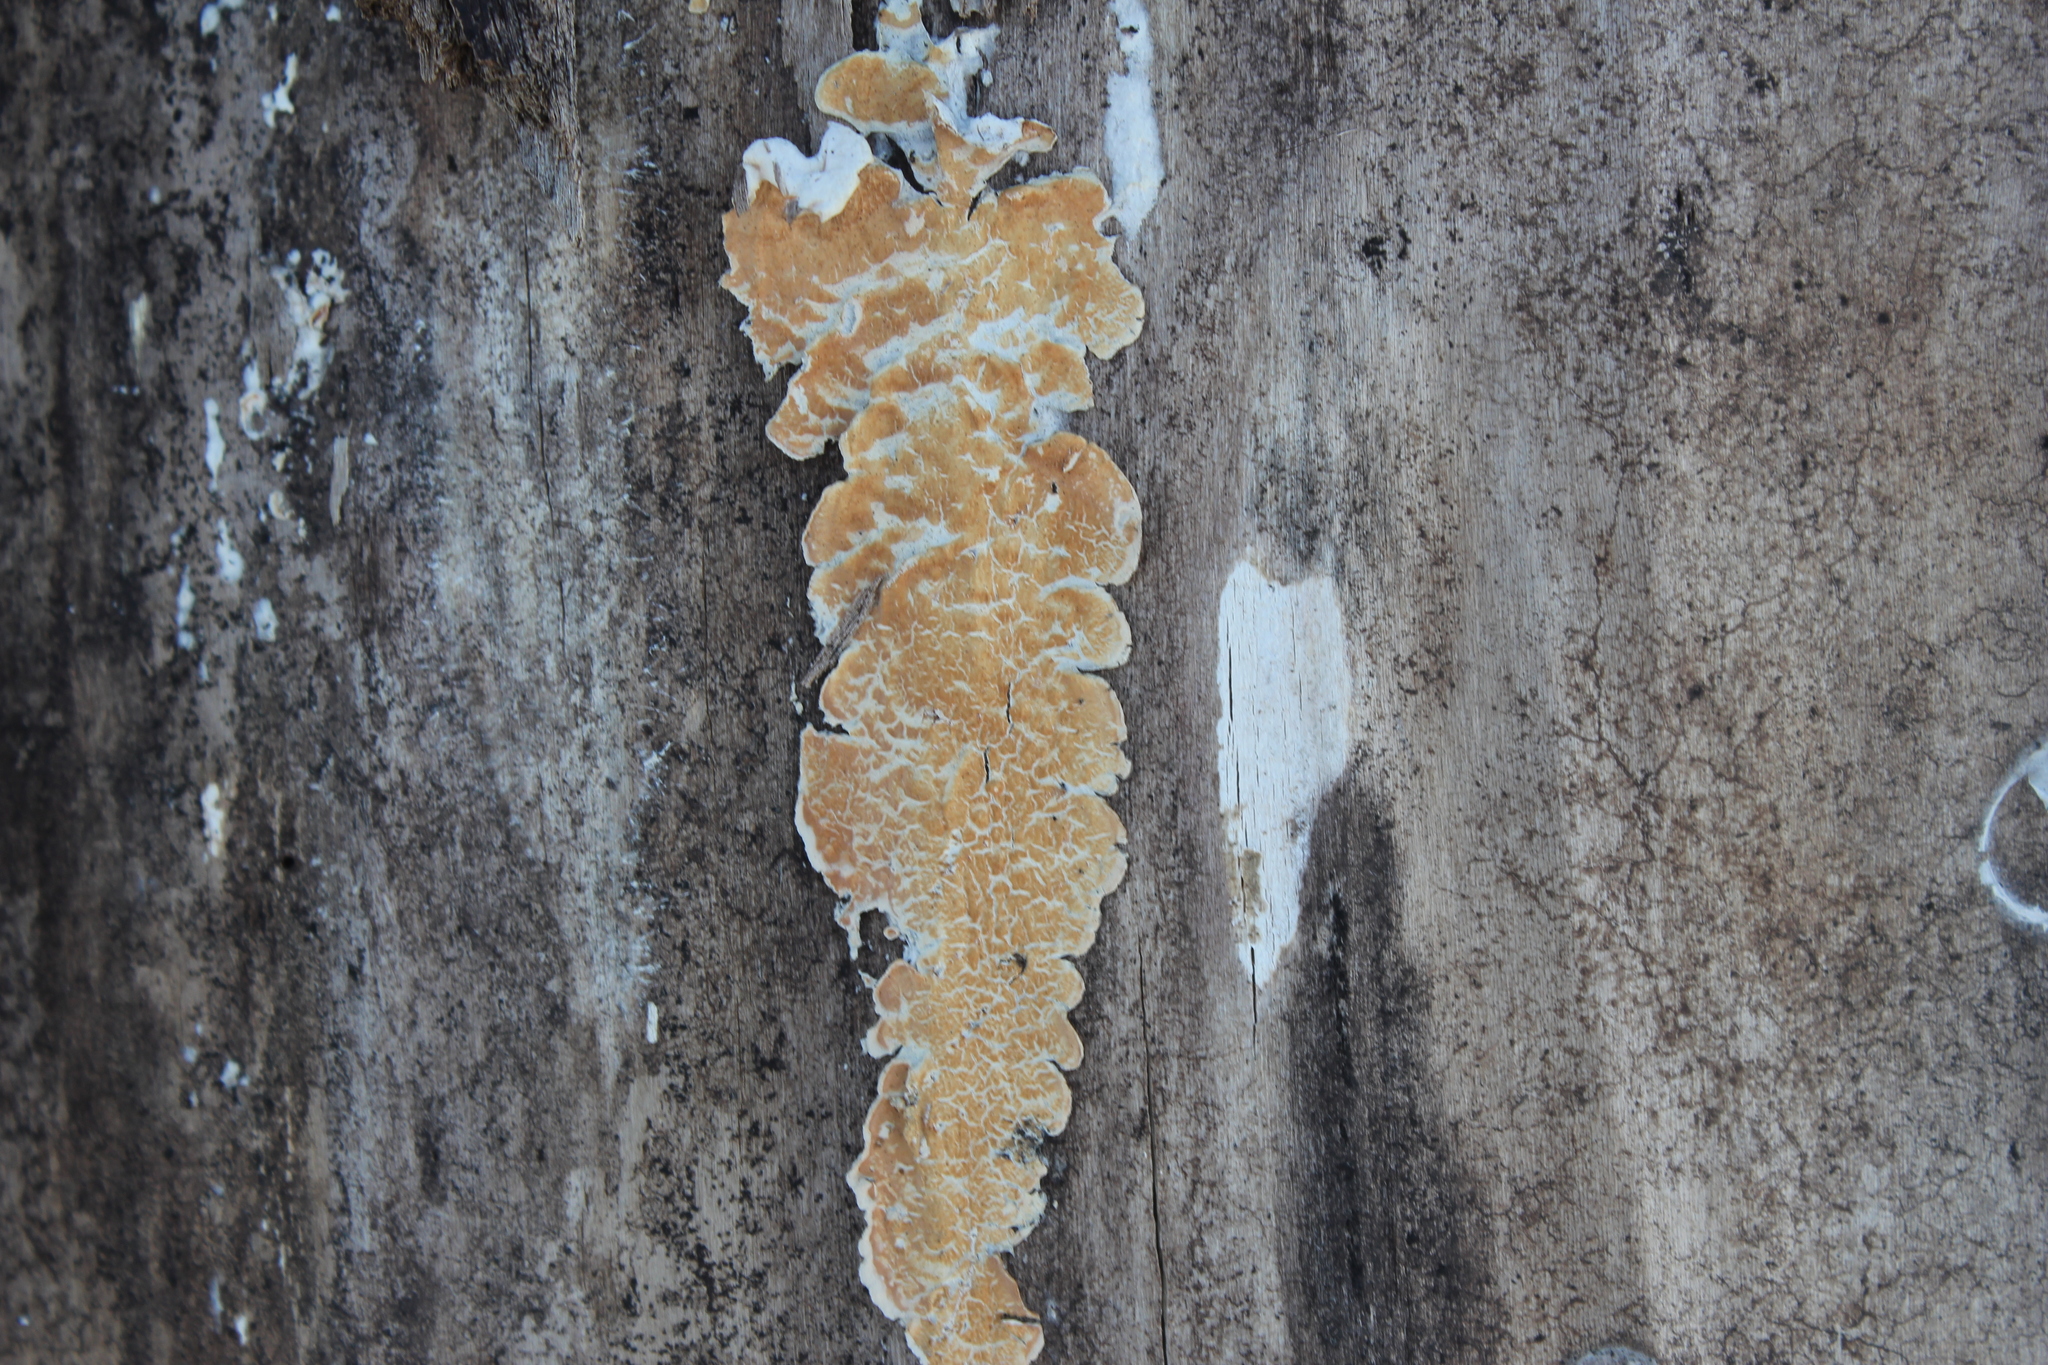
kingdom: Fungi
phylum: Basidiomycota
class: Agaricomycetes
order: Polyporales
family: Irpicaceae
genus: Irpex
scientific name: Irpex lacteus
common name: Milk-white toothed polypore
